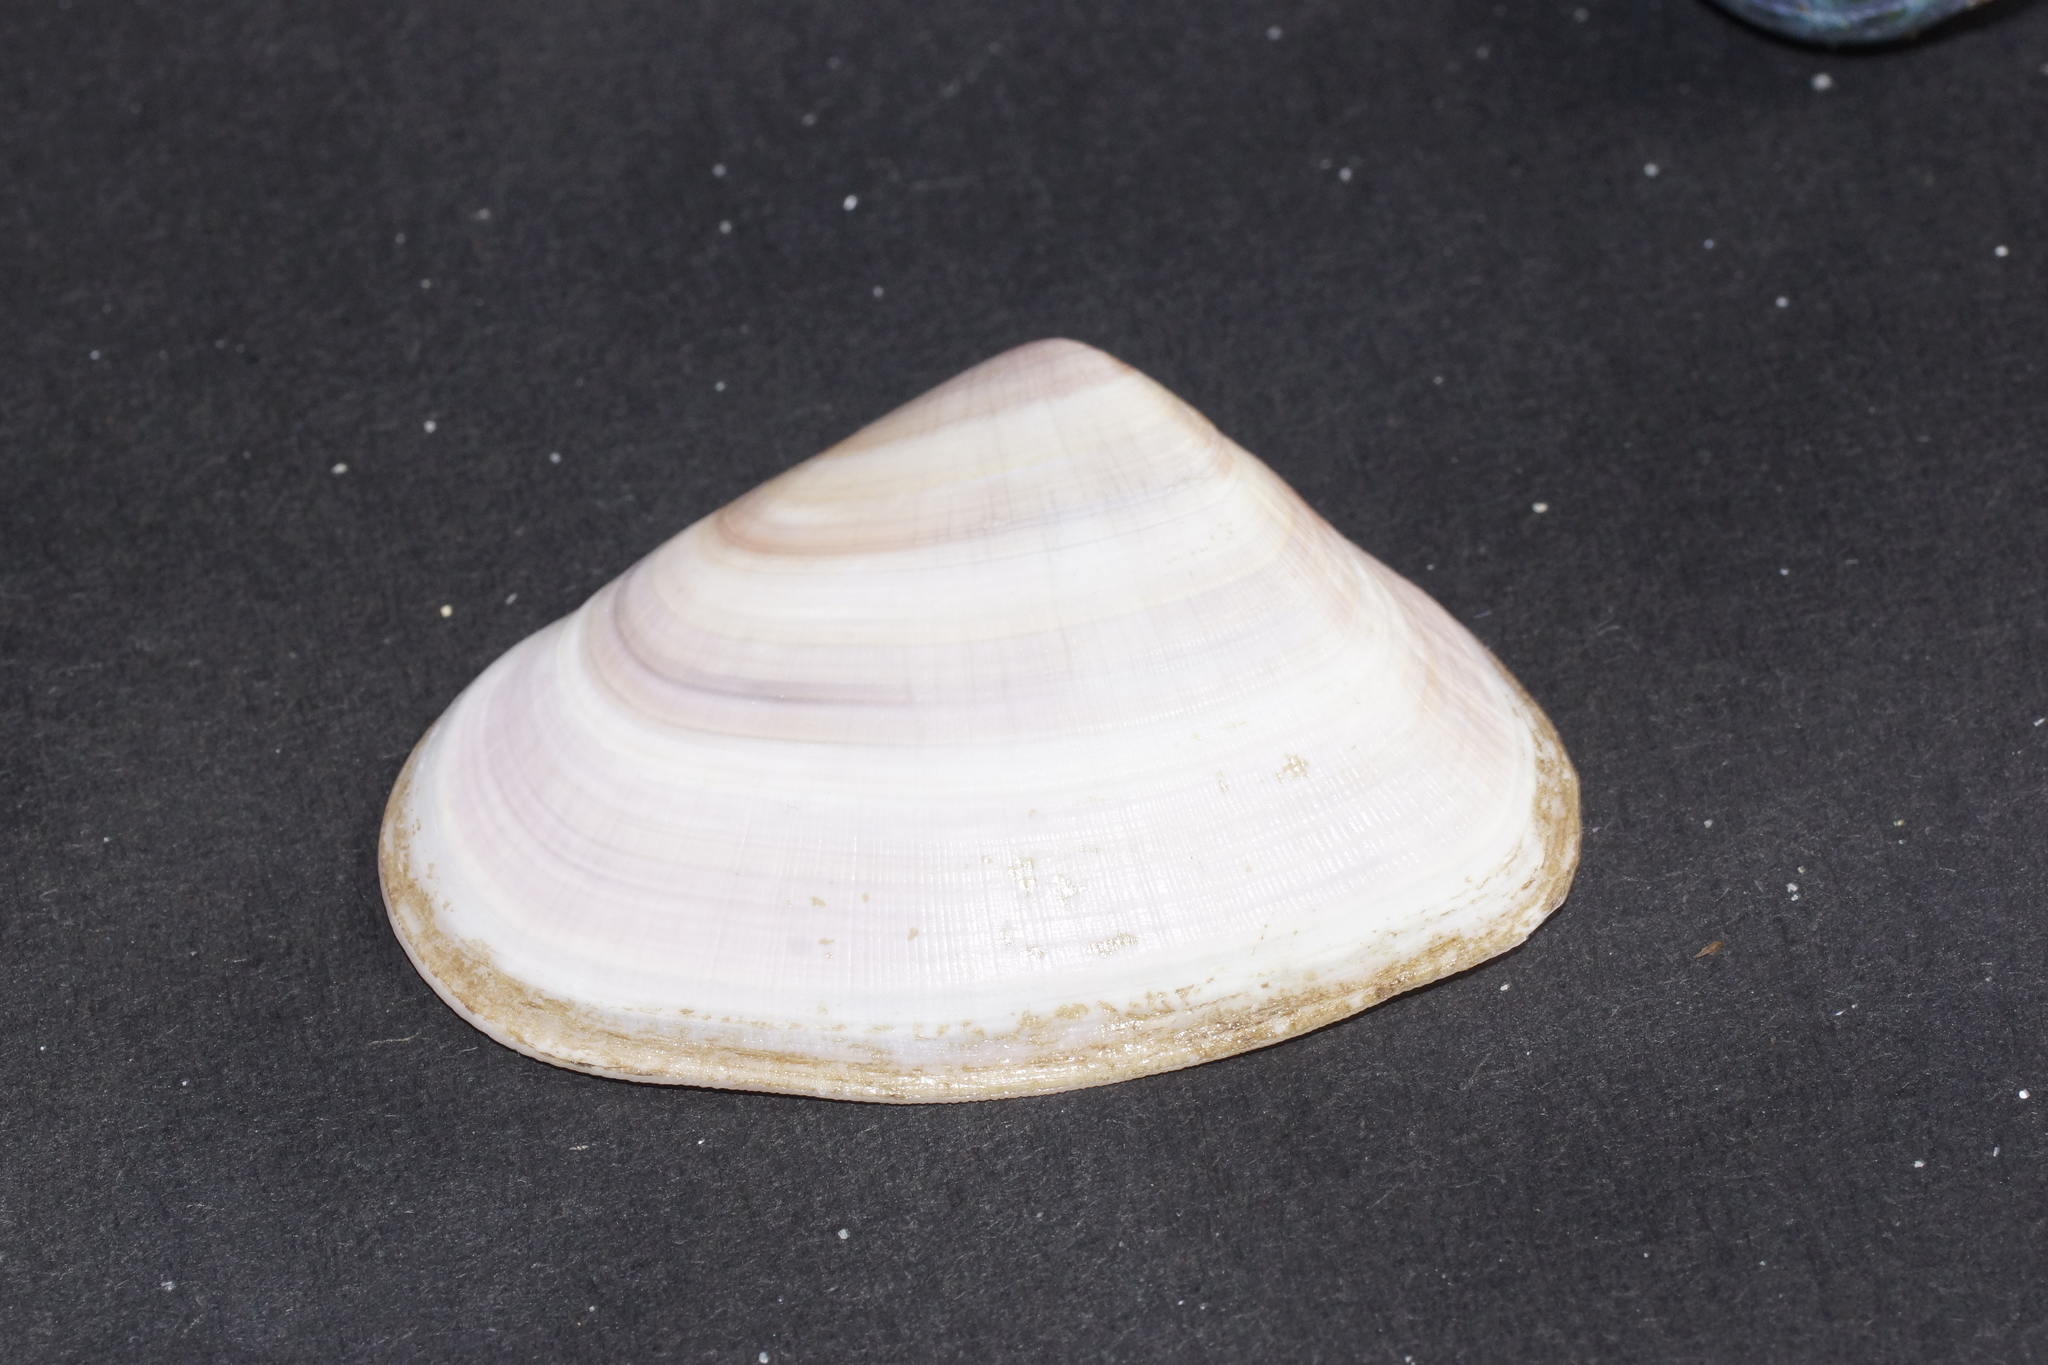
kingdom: Animalia
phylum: Mollusca
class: Bivalvia
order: Cardiida
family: Donacidae
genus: Latona
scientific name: Latona deltoides
